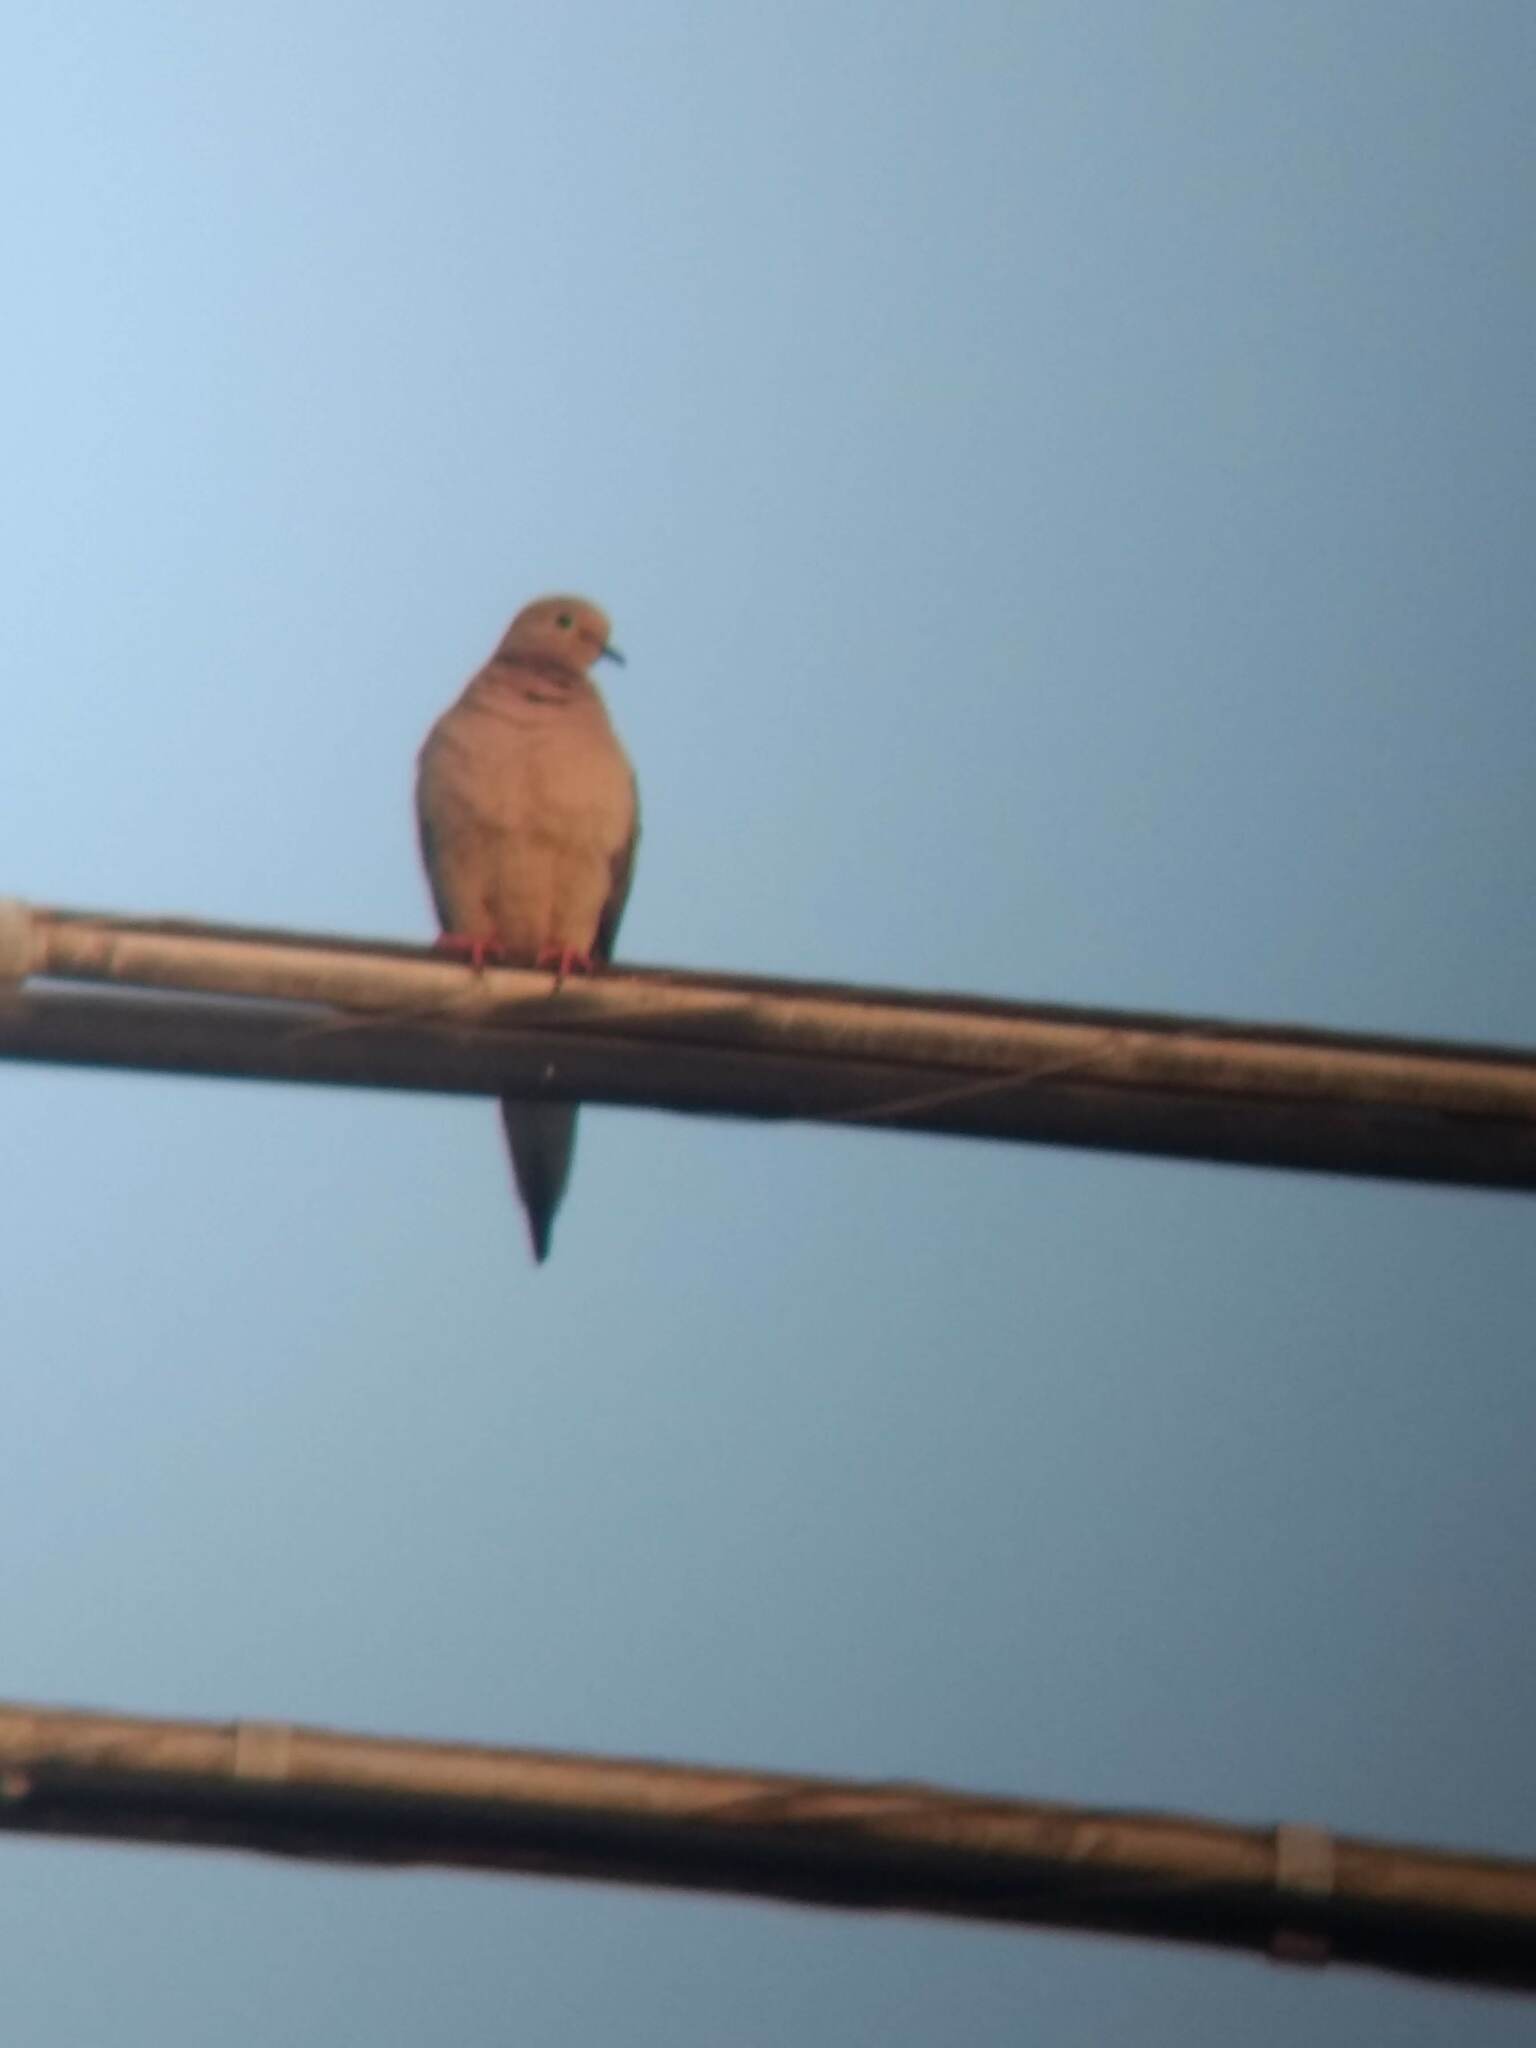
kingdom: Animalia
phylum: Chordata
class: Aves
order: Columbiformes
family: Columbidae
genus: Zenaida
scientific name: Zenaida macroura
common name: Mourning dove
